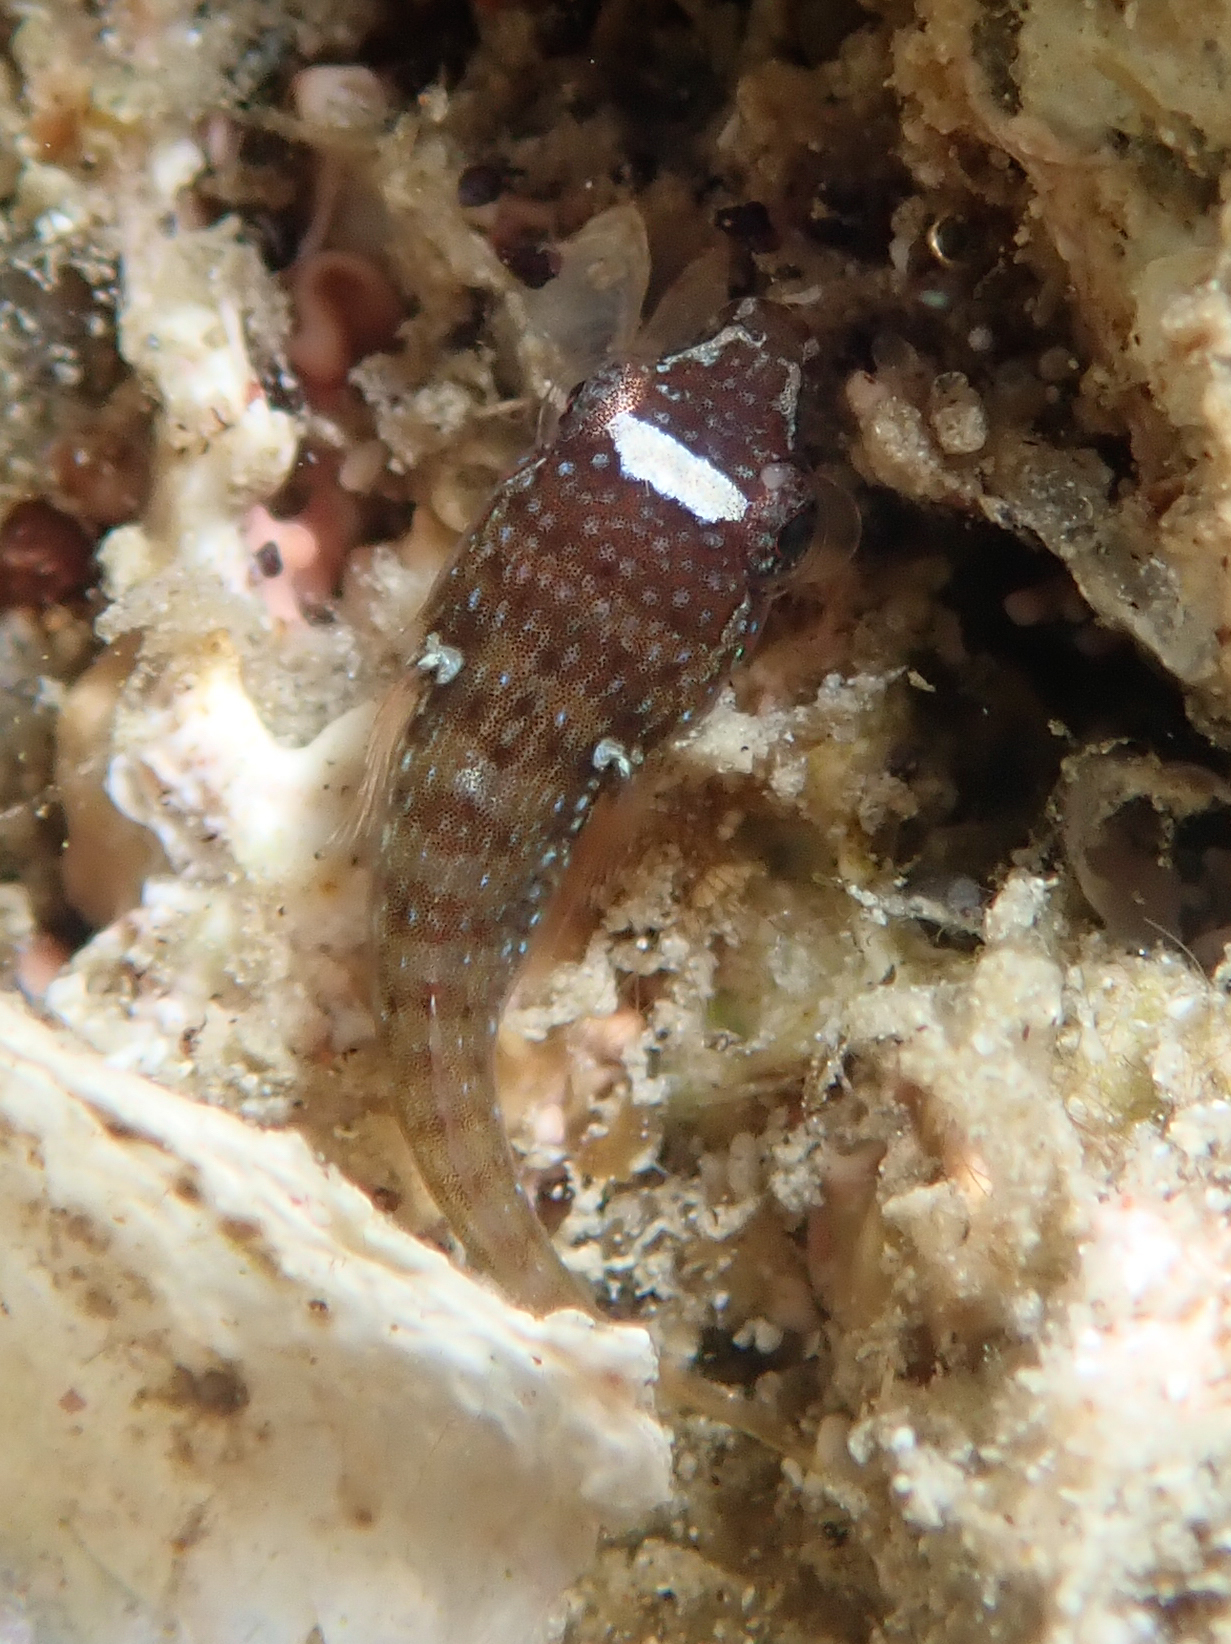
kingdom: Animalia
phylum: Chordata
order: Gobiesociformes
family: Gobiesocidae
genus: Lepadogaster
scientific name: Lepadogaster candolii
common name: Connemarra clingfish
